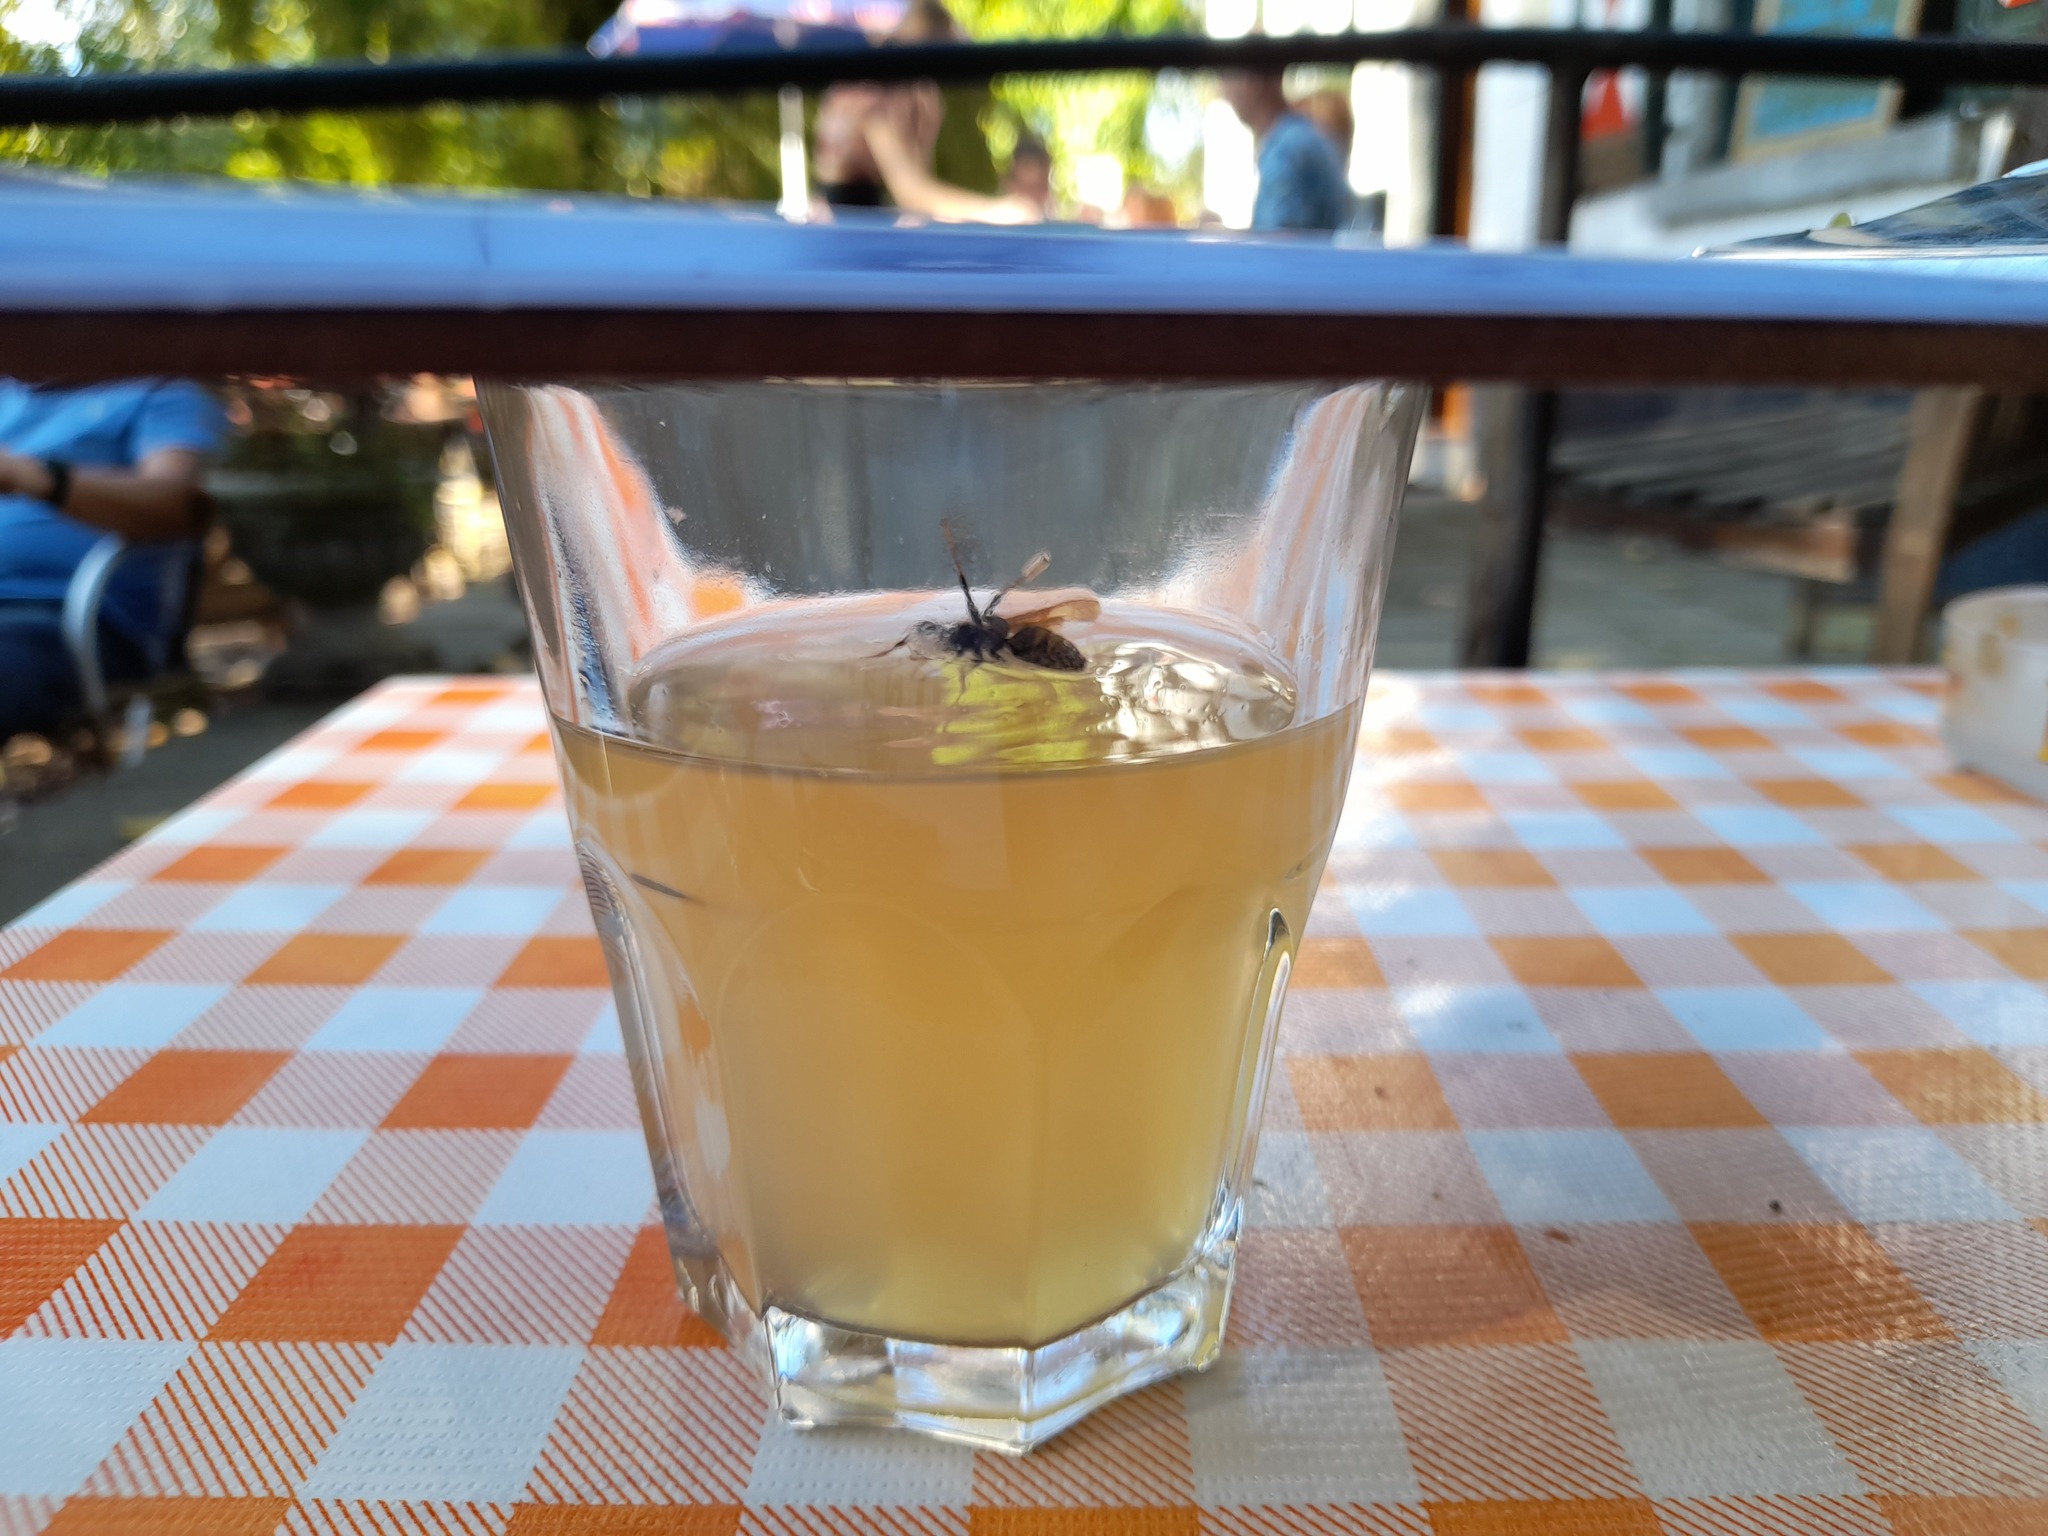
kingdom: Animalia
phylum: Arthropoda
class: Insecta
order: Hymenoptera
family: Vespidae
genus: Vespa
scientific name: Vespa velutina
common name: Asian hornet
